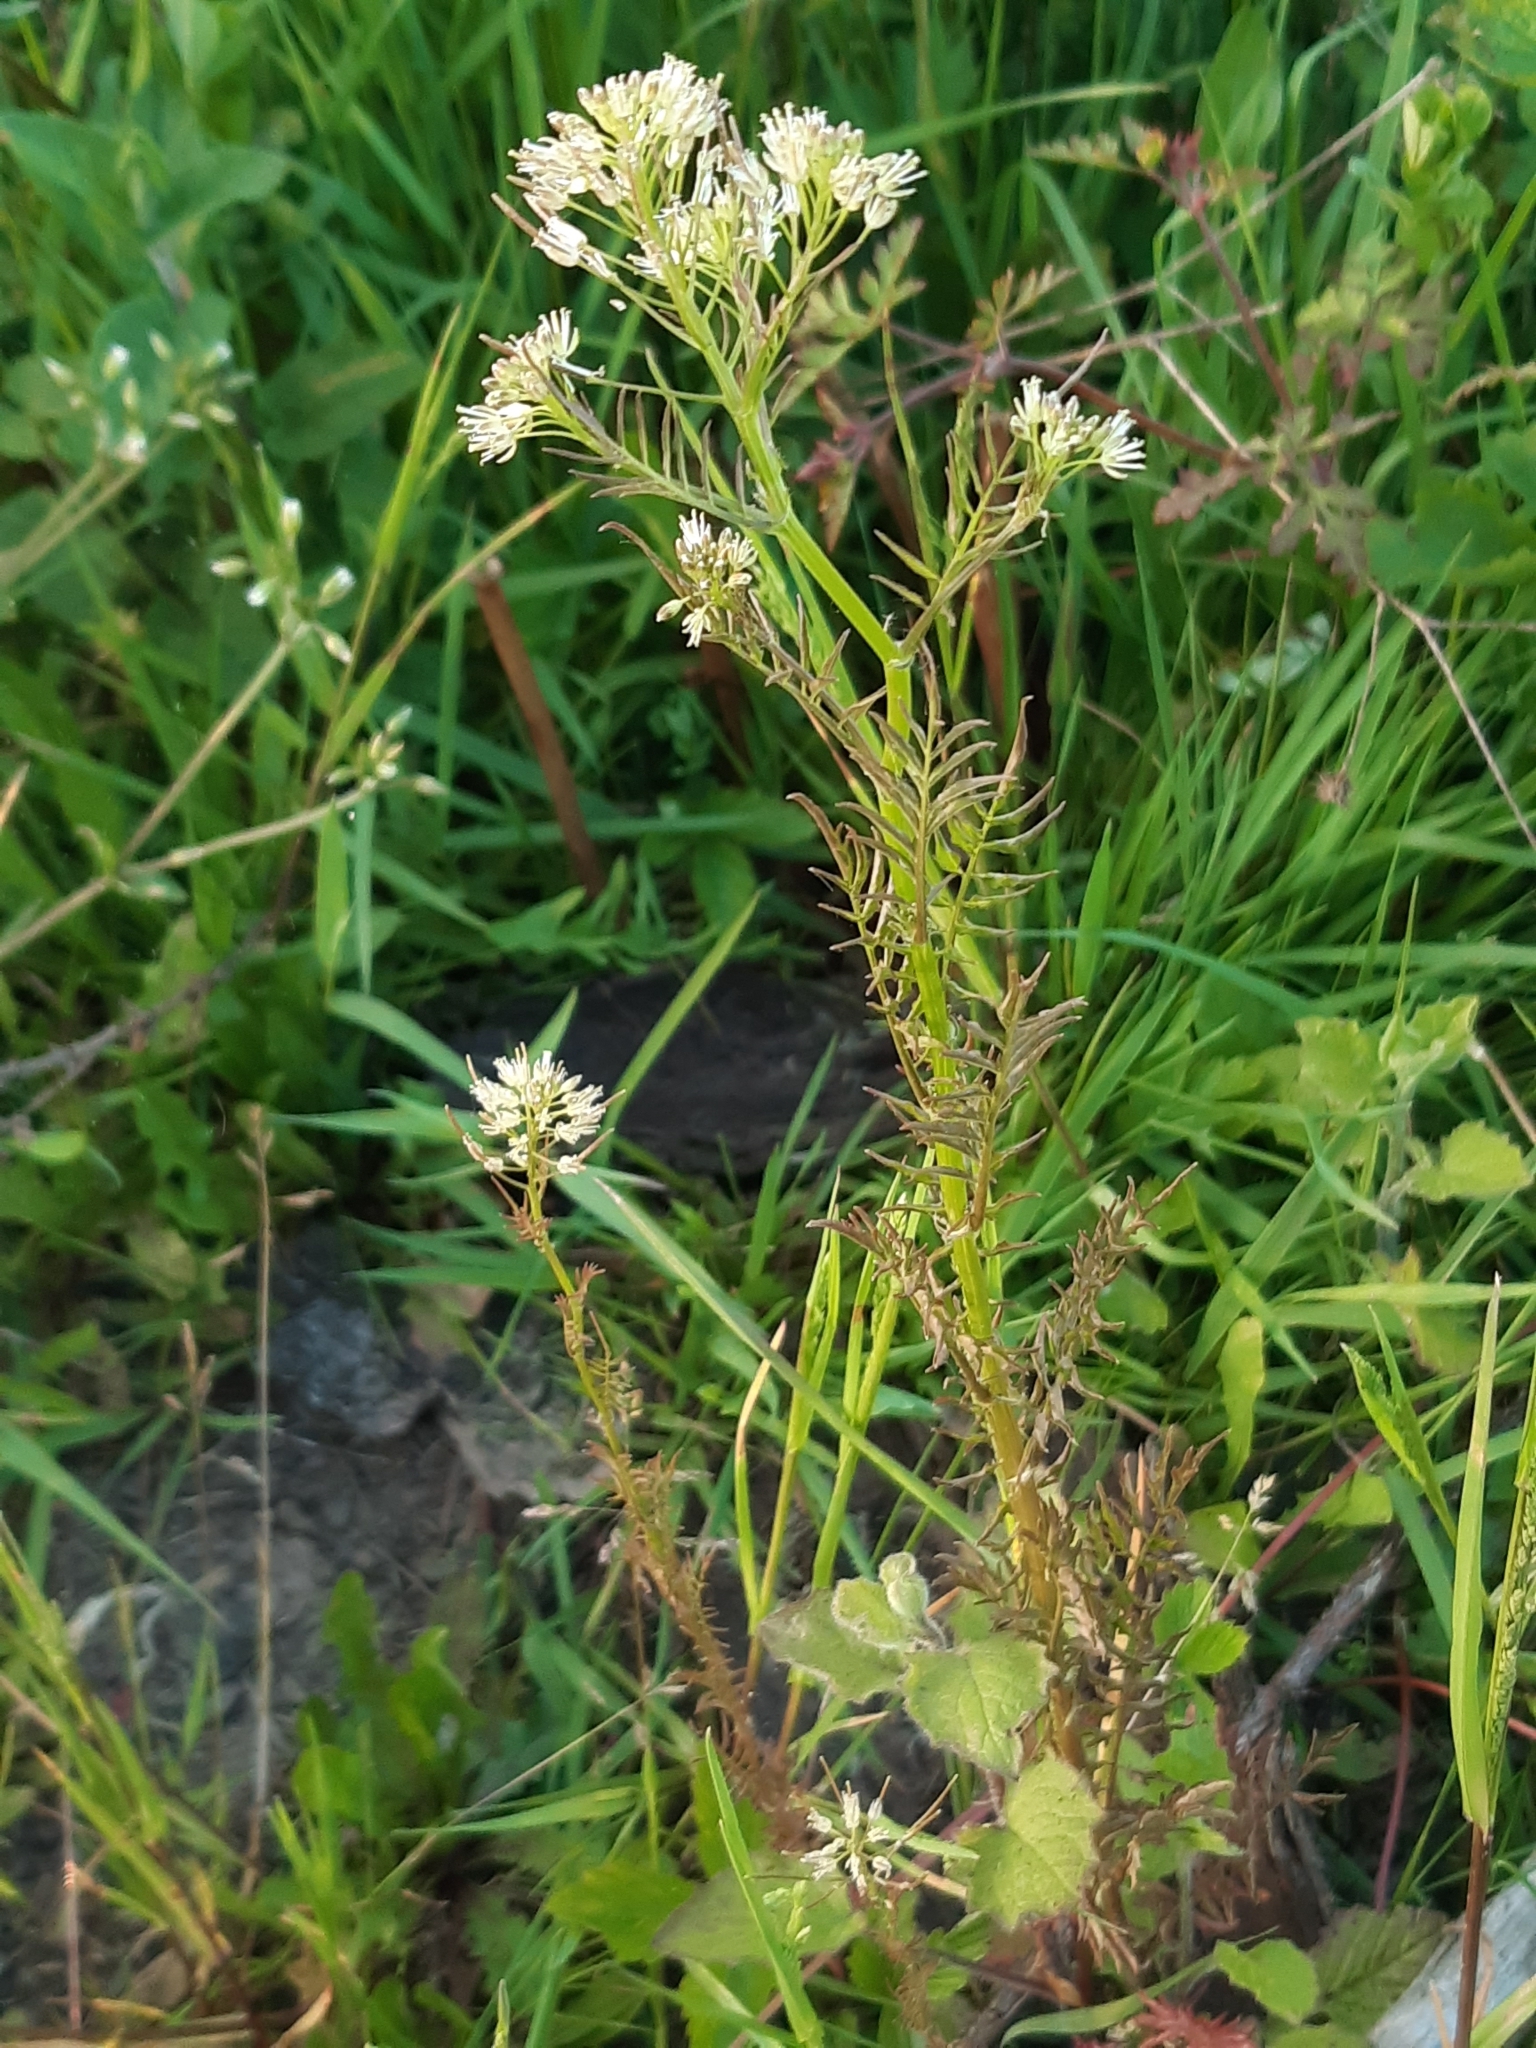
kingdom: Plantae
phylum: Tracheophyta
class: Magnoliopsida
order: Brassicales
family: Brassicaceae
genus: Cardamine
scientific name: Cardamine impatiens
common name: Narrow-leaved bitter-cress
